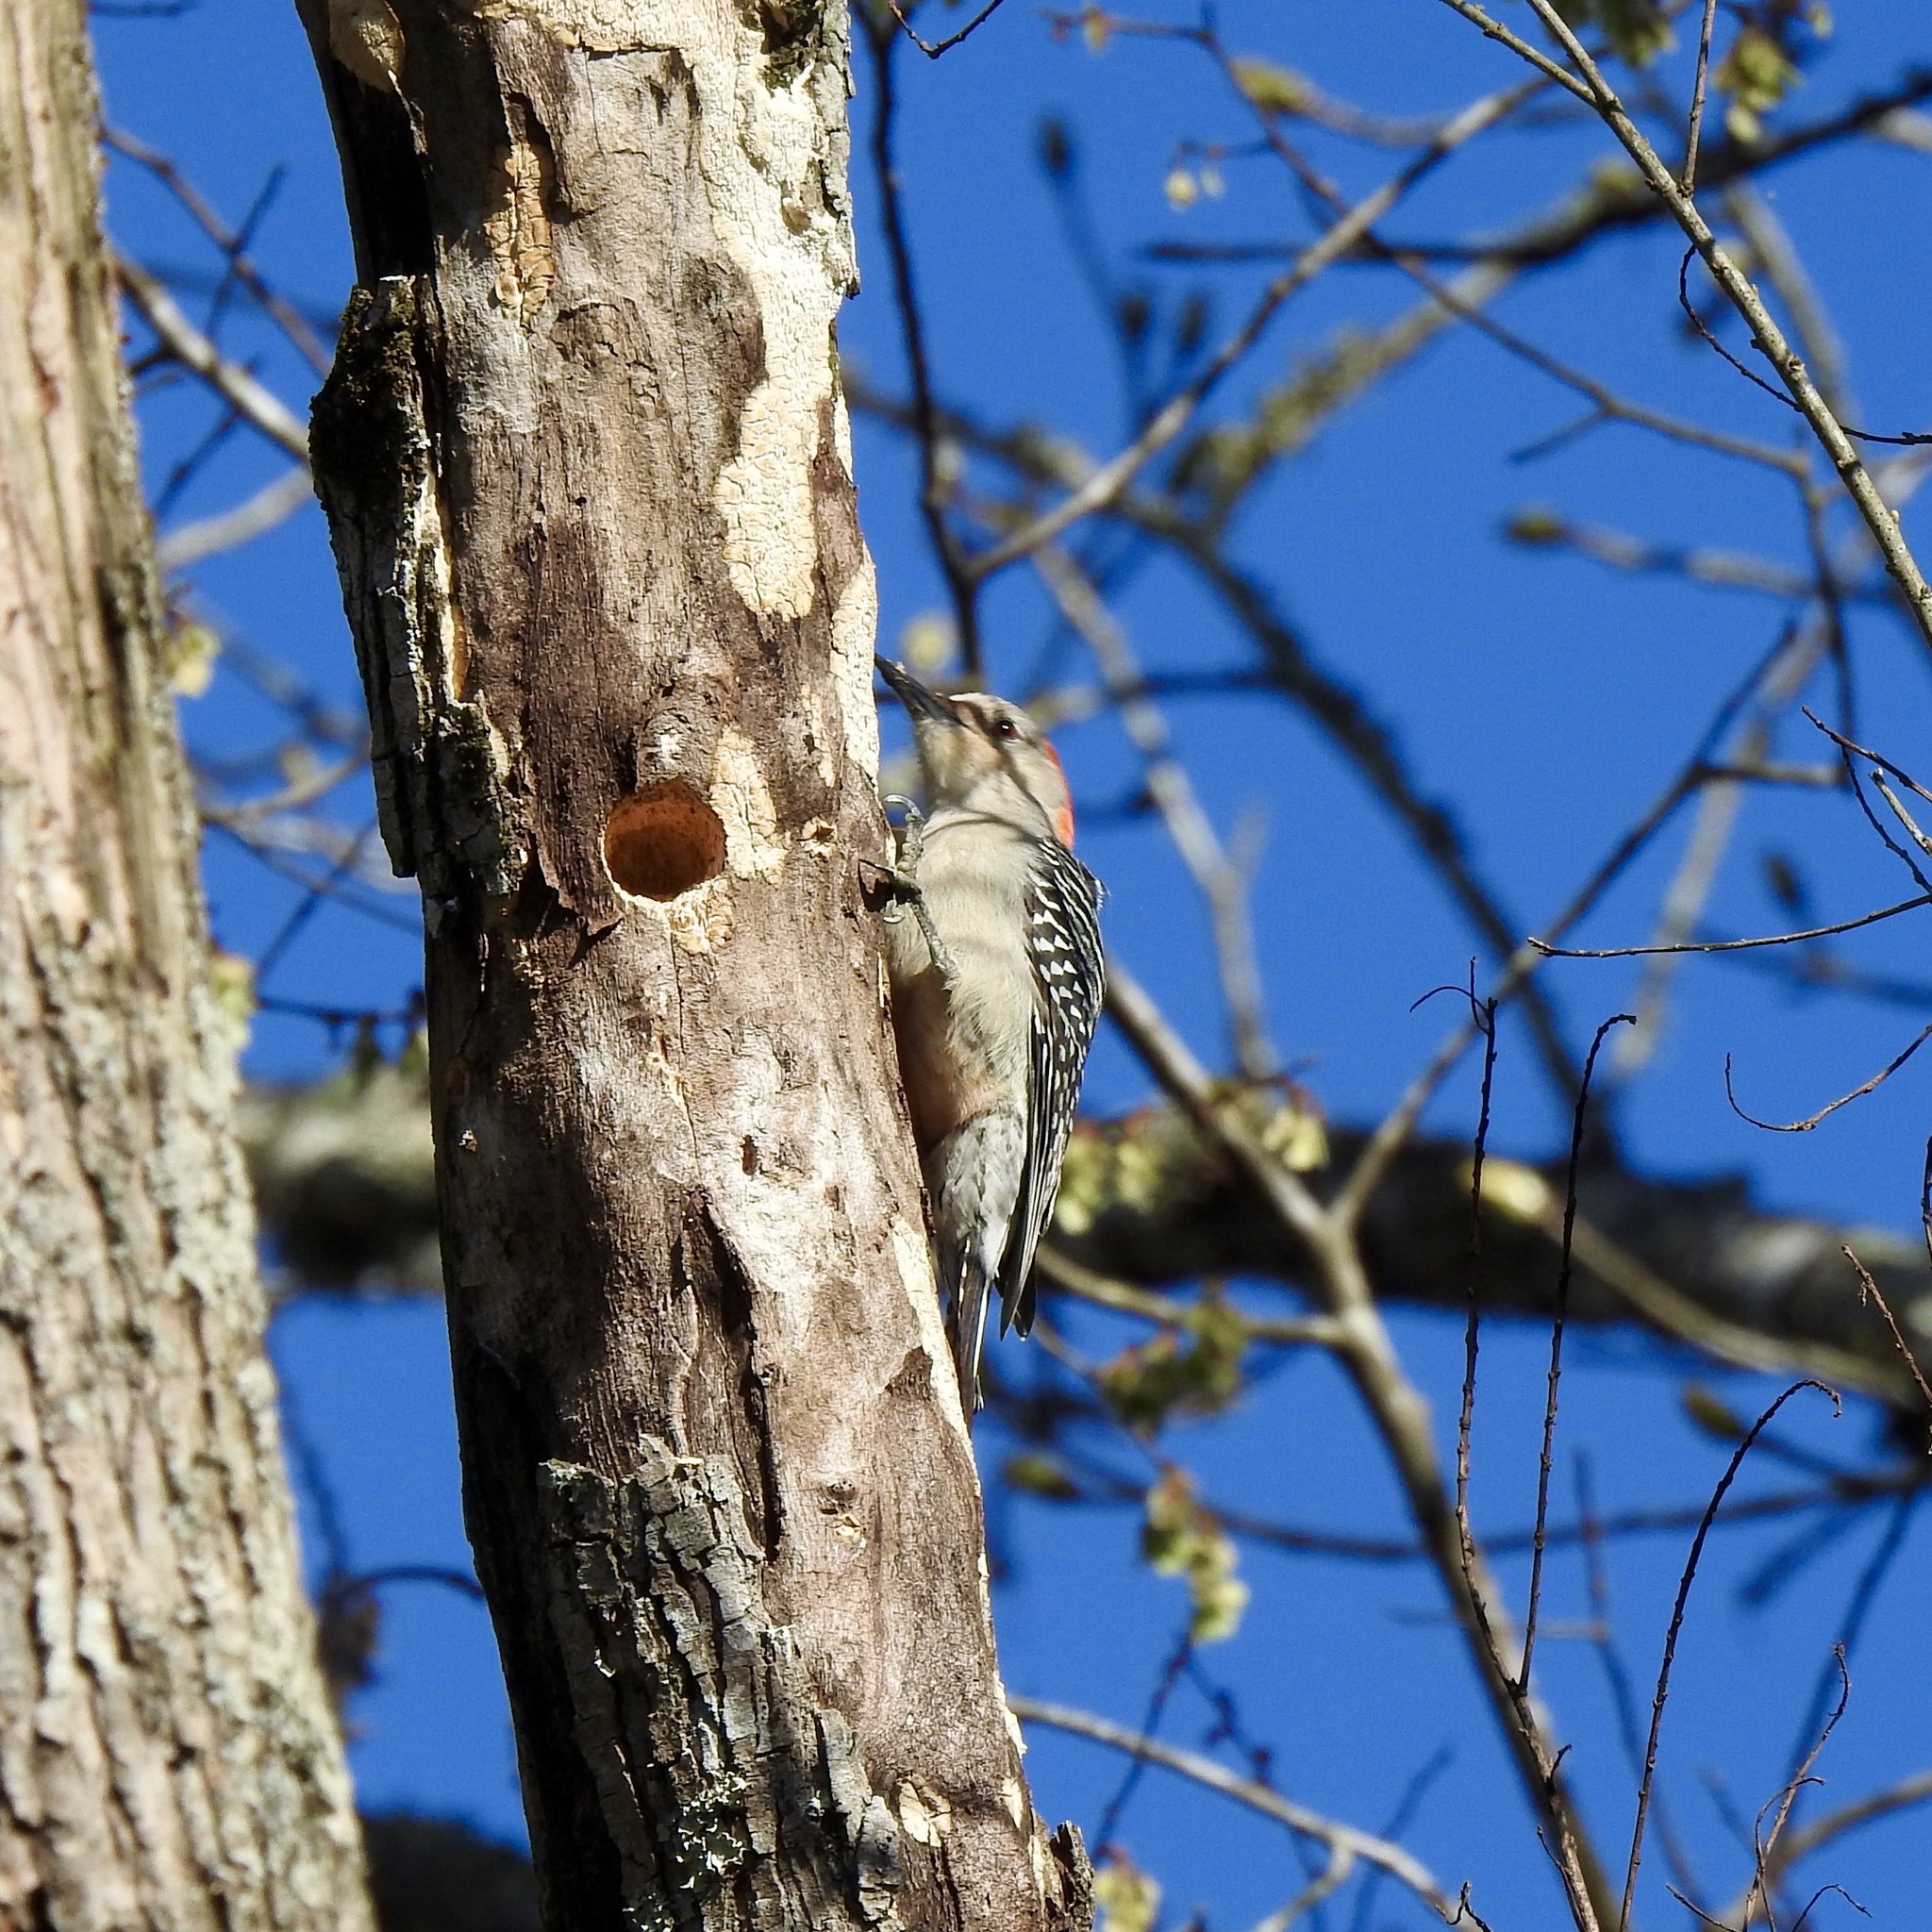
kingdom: Animalia
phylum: Chordata
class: Aves
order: Piciformes
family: Picidae
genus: Melanerpes
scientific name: Melanerpes carolinus
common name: Red-bellied woodpecker
